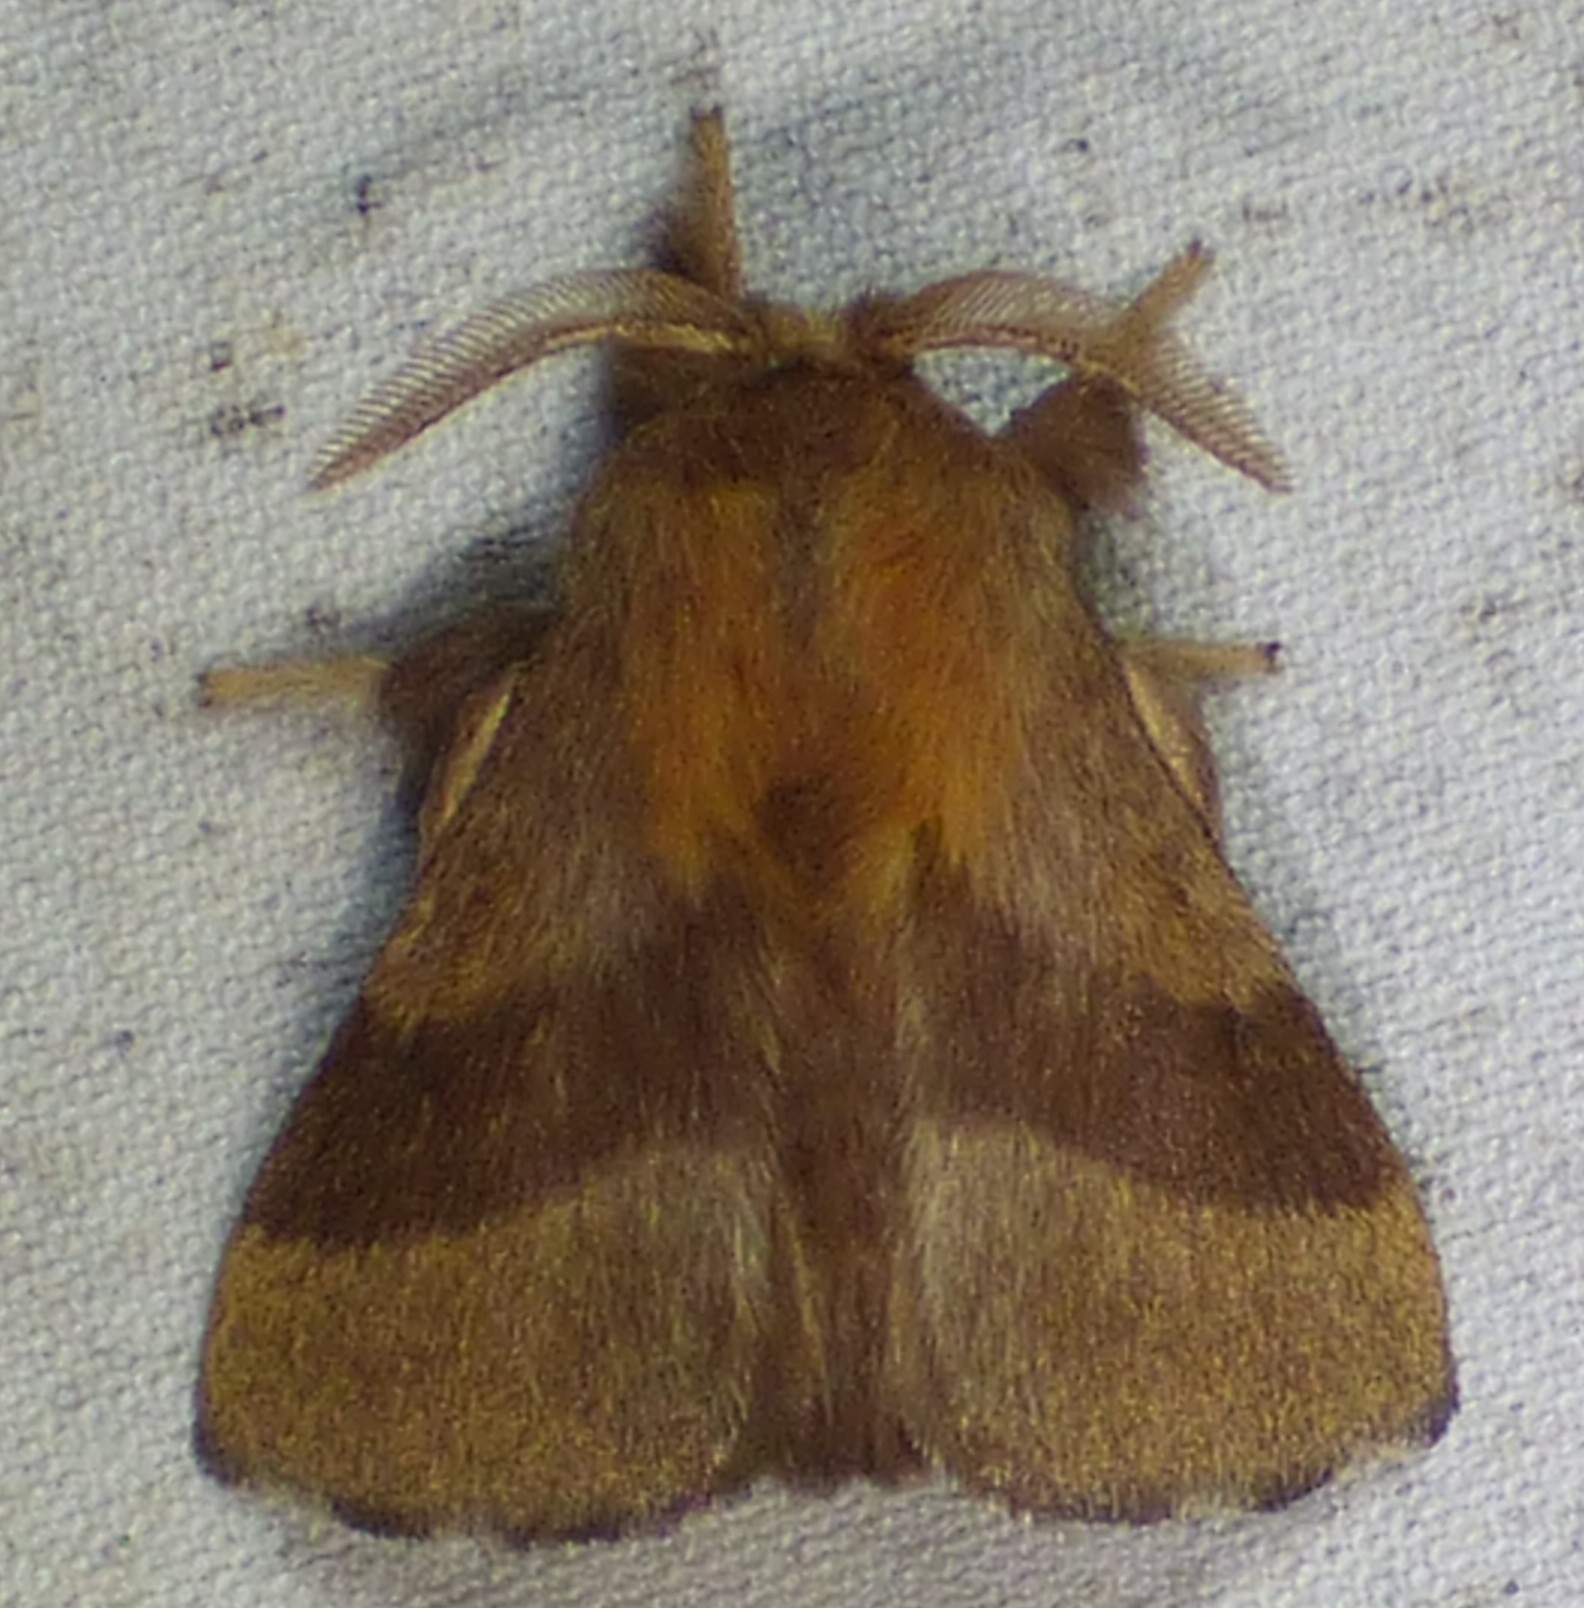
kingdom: Animalia
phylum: Arthropoda
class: Insecta
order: Lepidoptera
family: Lasiocampidae
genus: Malacosoma
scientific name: Malacosoma disstria
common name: Forest tent caterpillar
